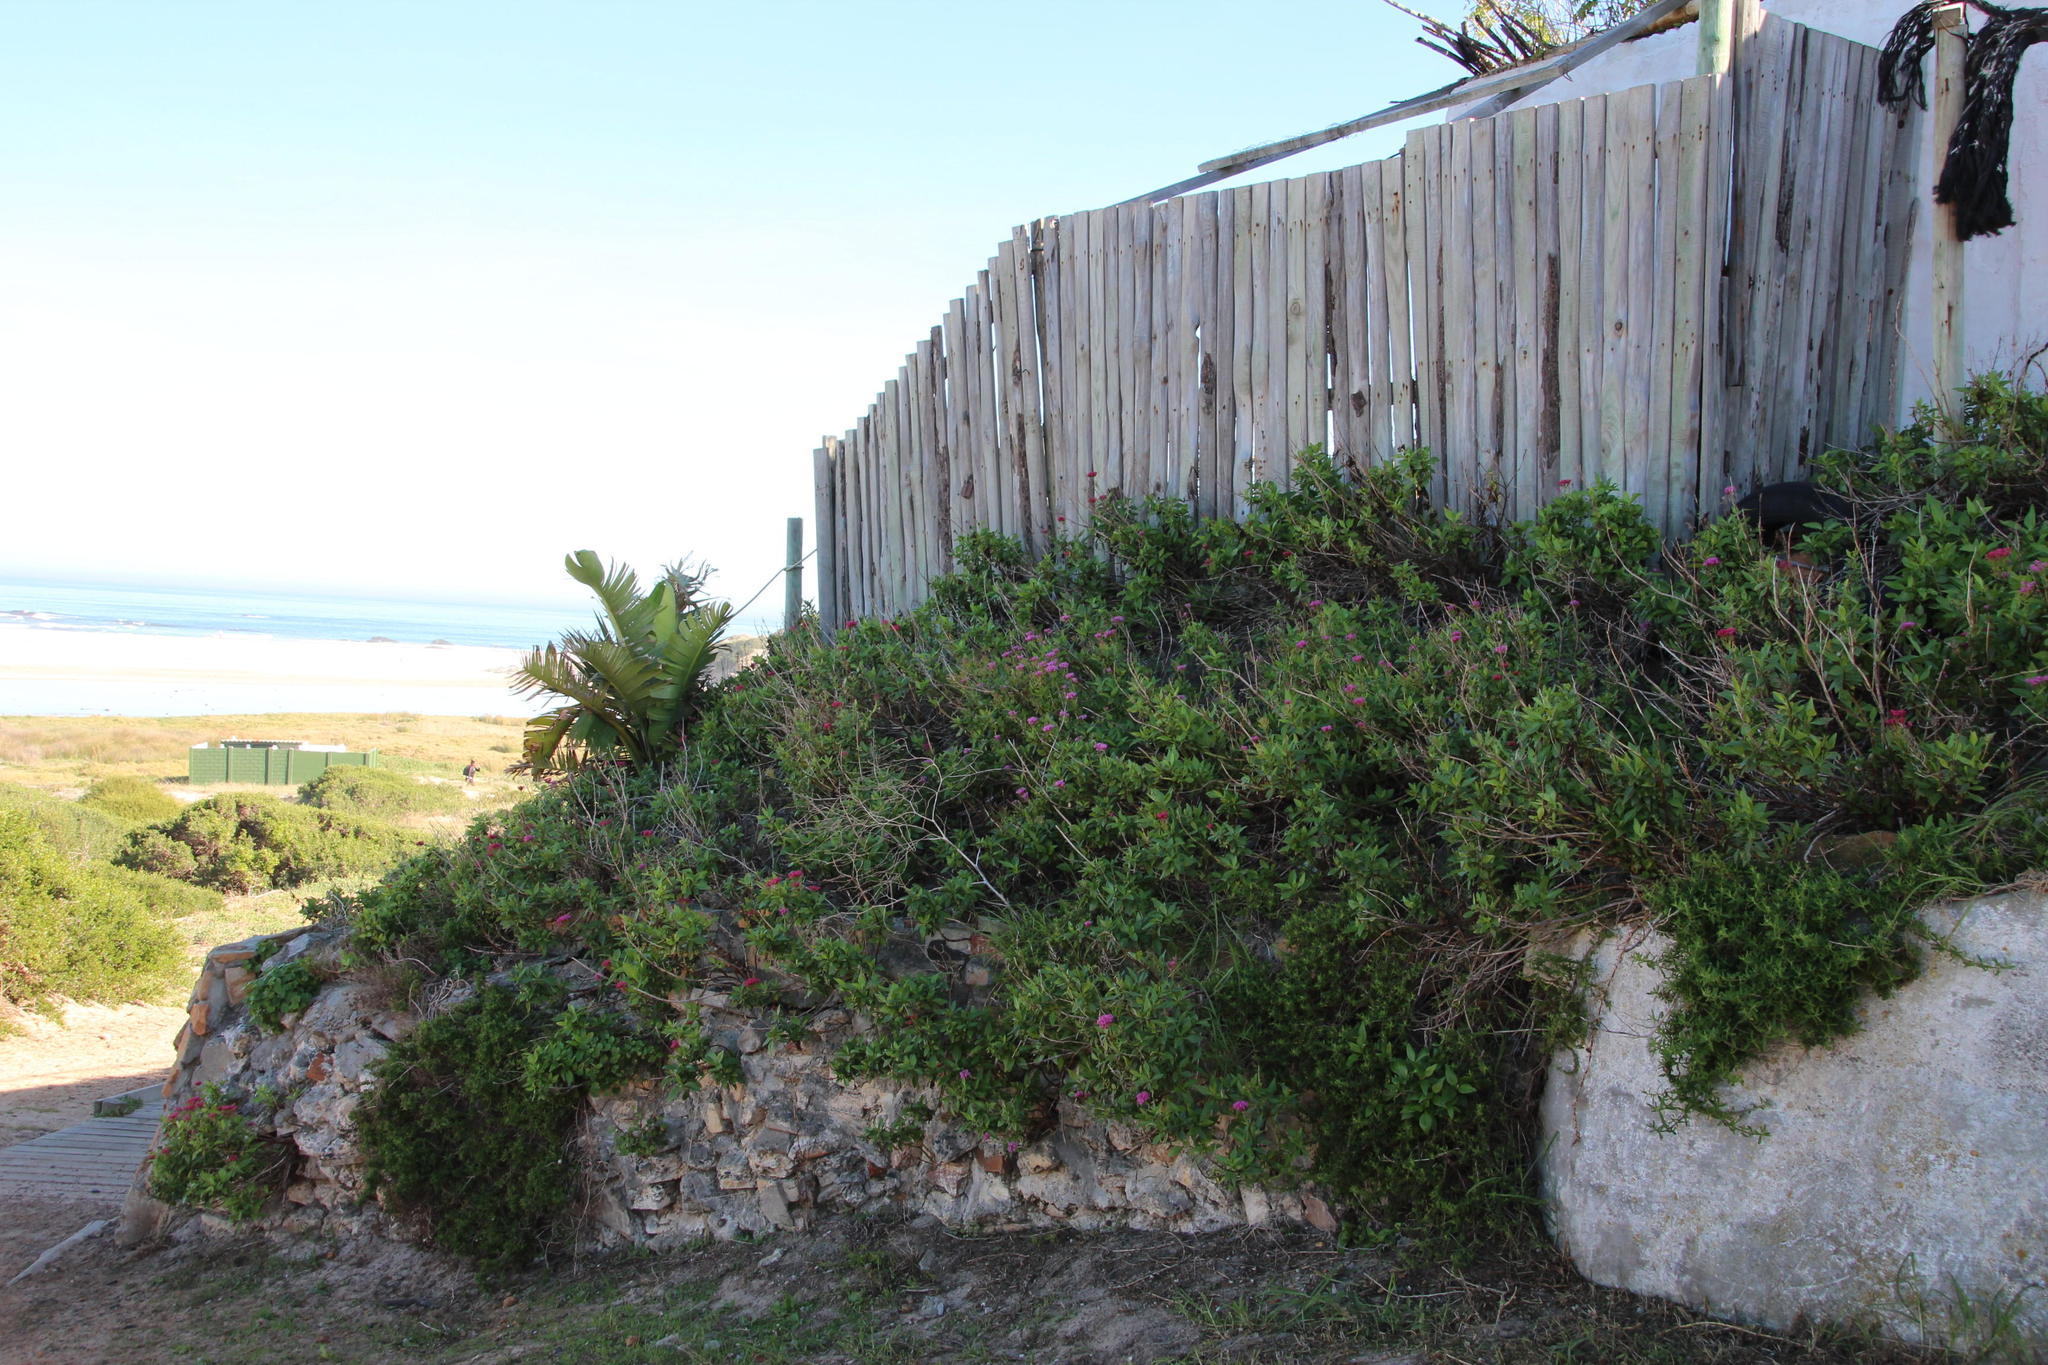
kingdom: Plantae
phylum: Tracheophyta
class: Magnoliopsida
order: Dipsacales
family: Caprifoliaceae
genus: Centranthus
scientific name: Centranthus ruber
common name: Red valerian
